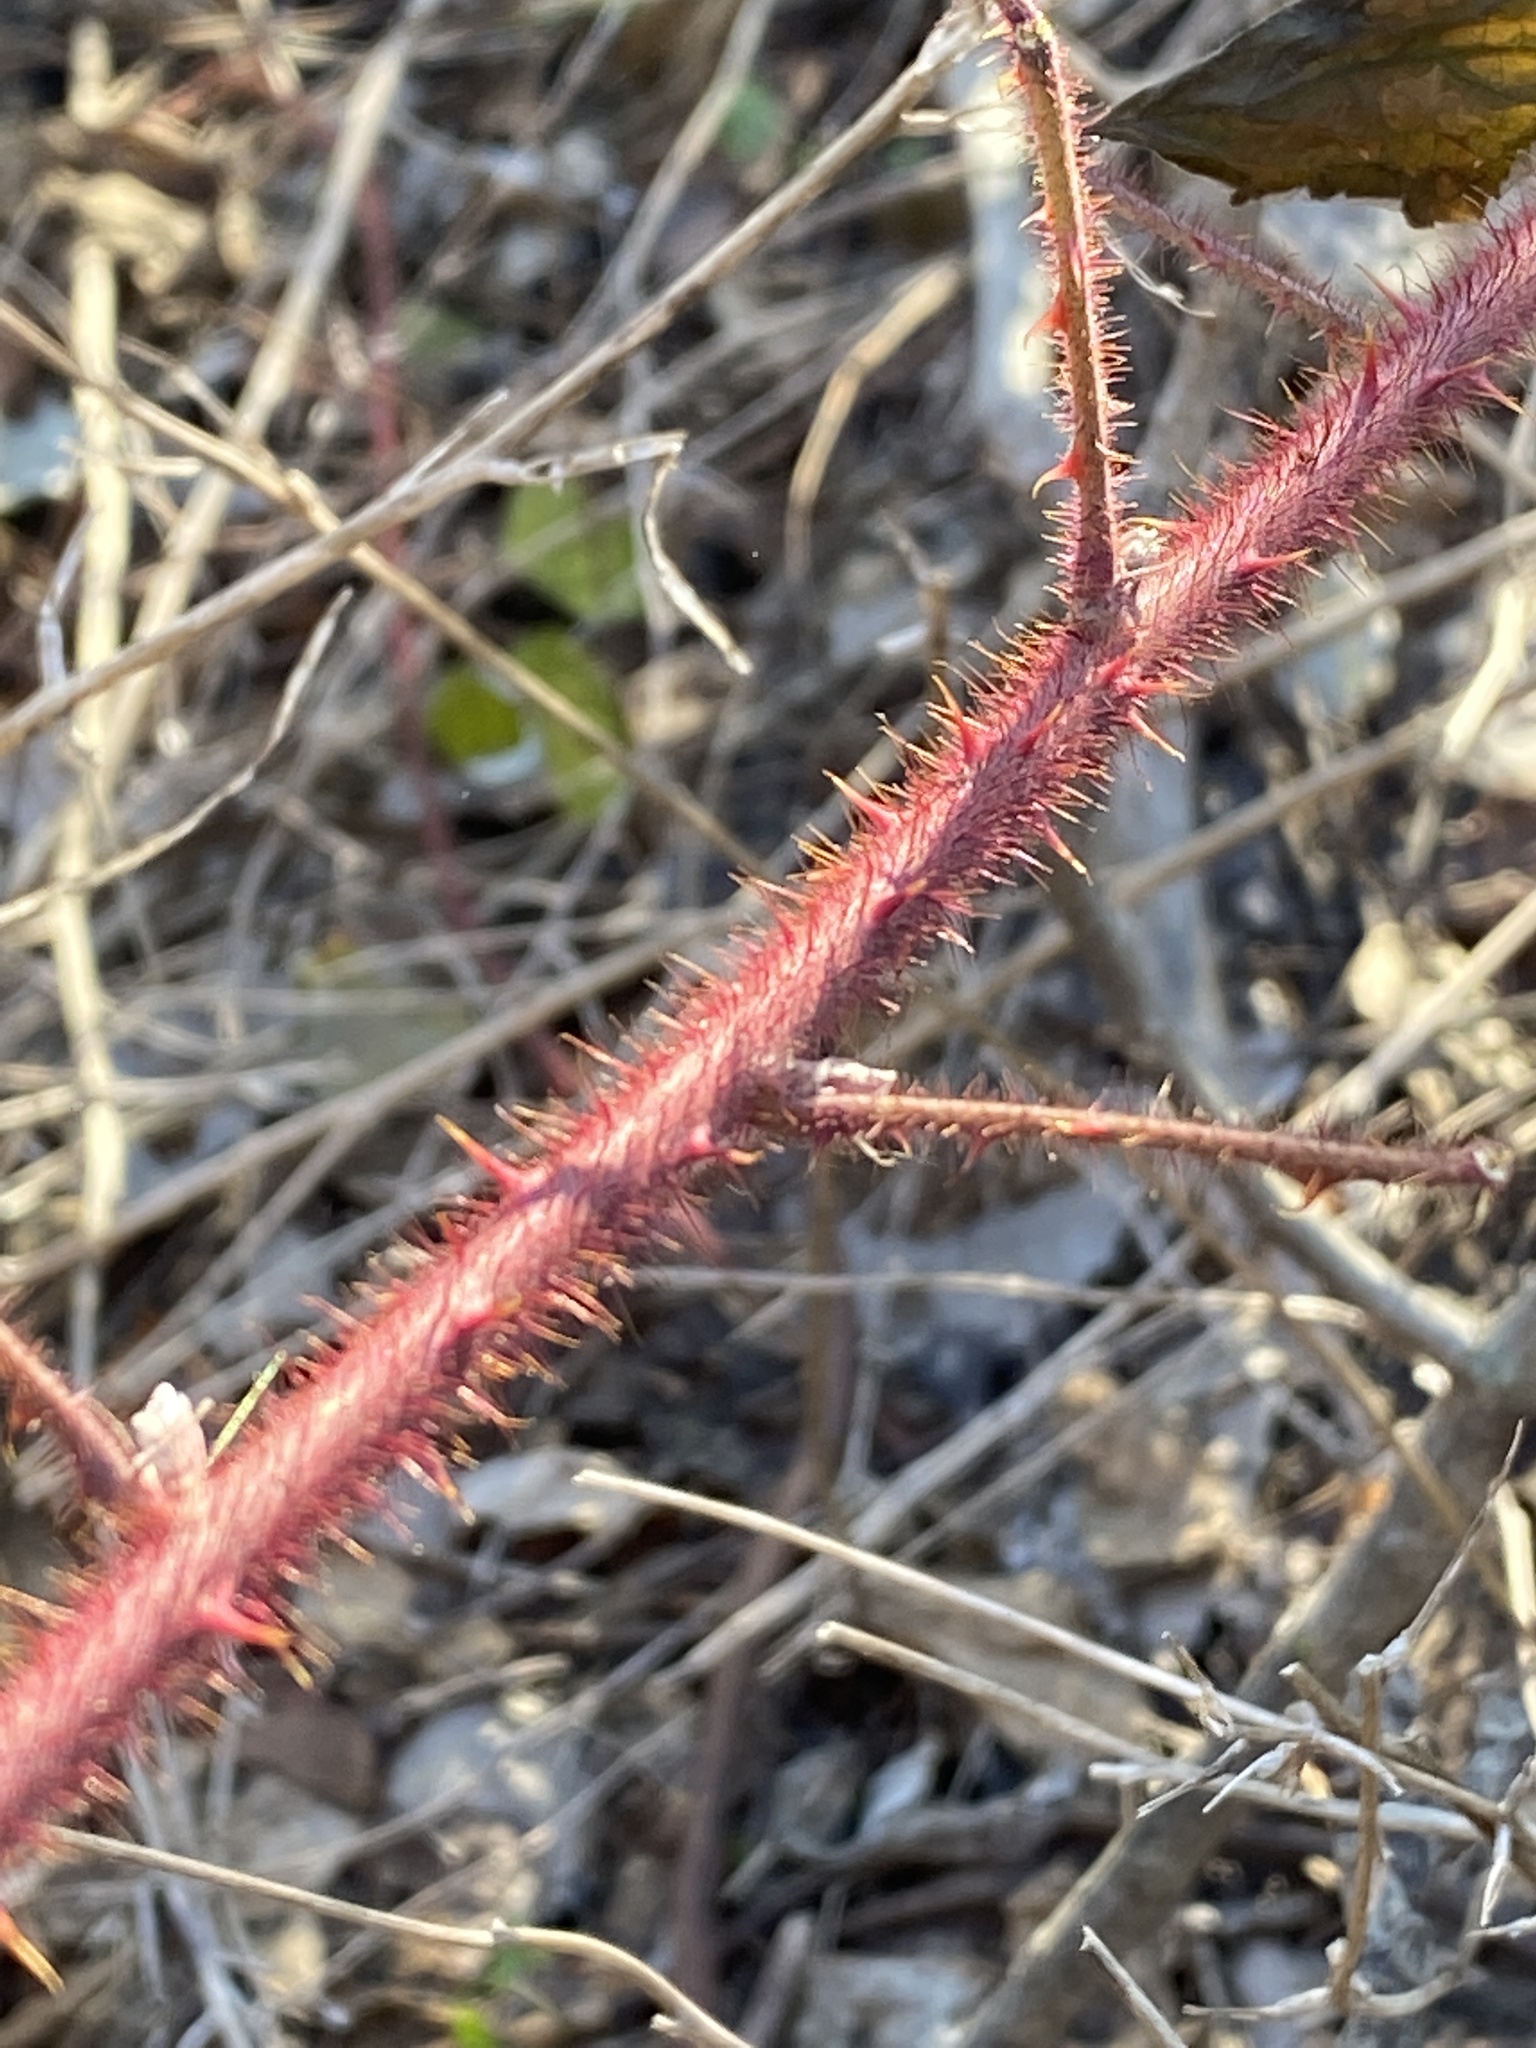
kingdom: Plantae
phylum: Tracheophyta
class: Magnoliopsida
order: Rosales
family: Rosaceae
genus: Rubus
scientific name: Rubus phoenicolasius
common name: Japanese wineberry
